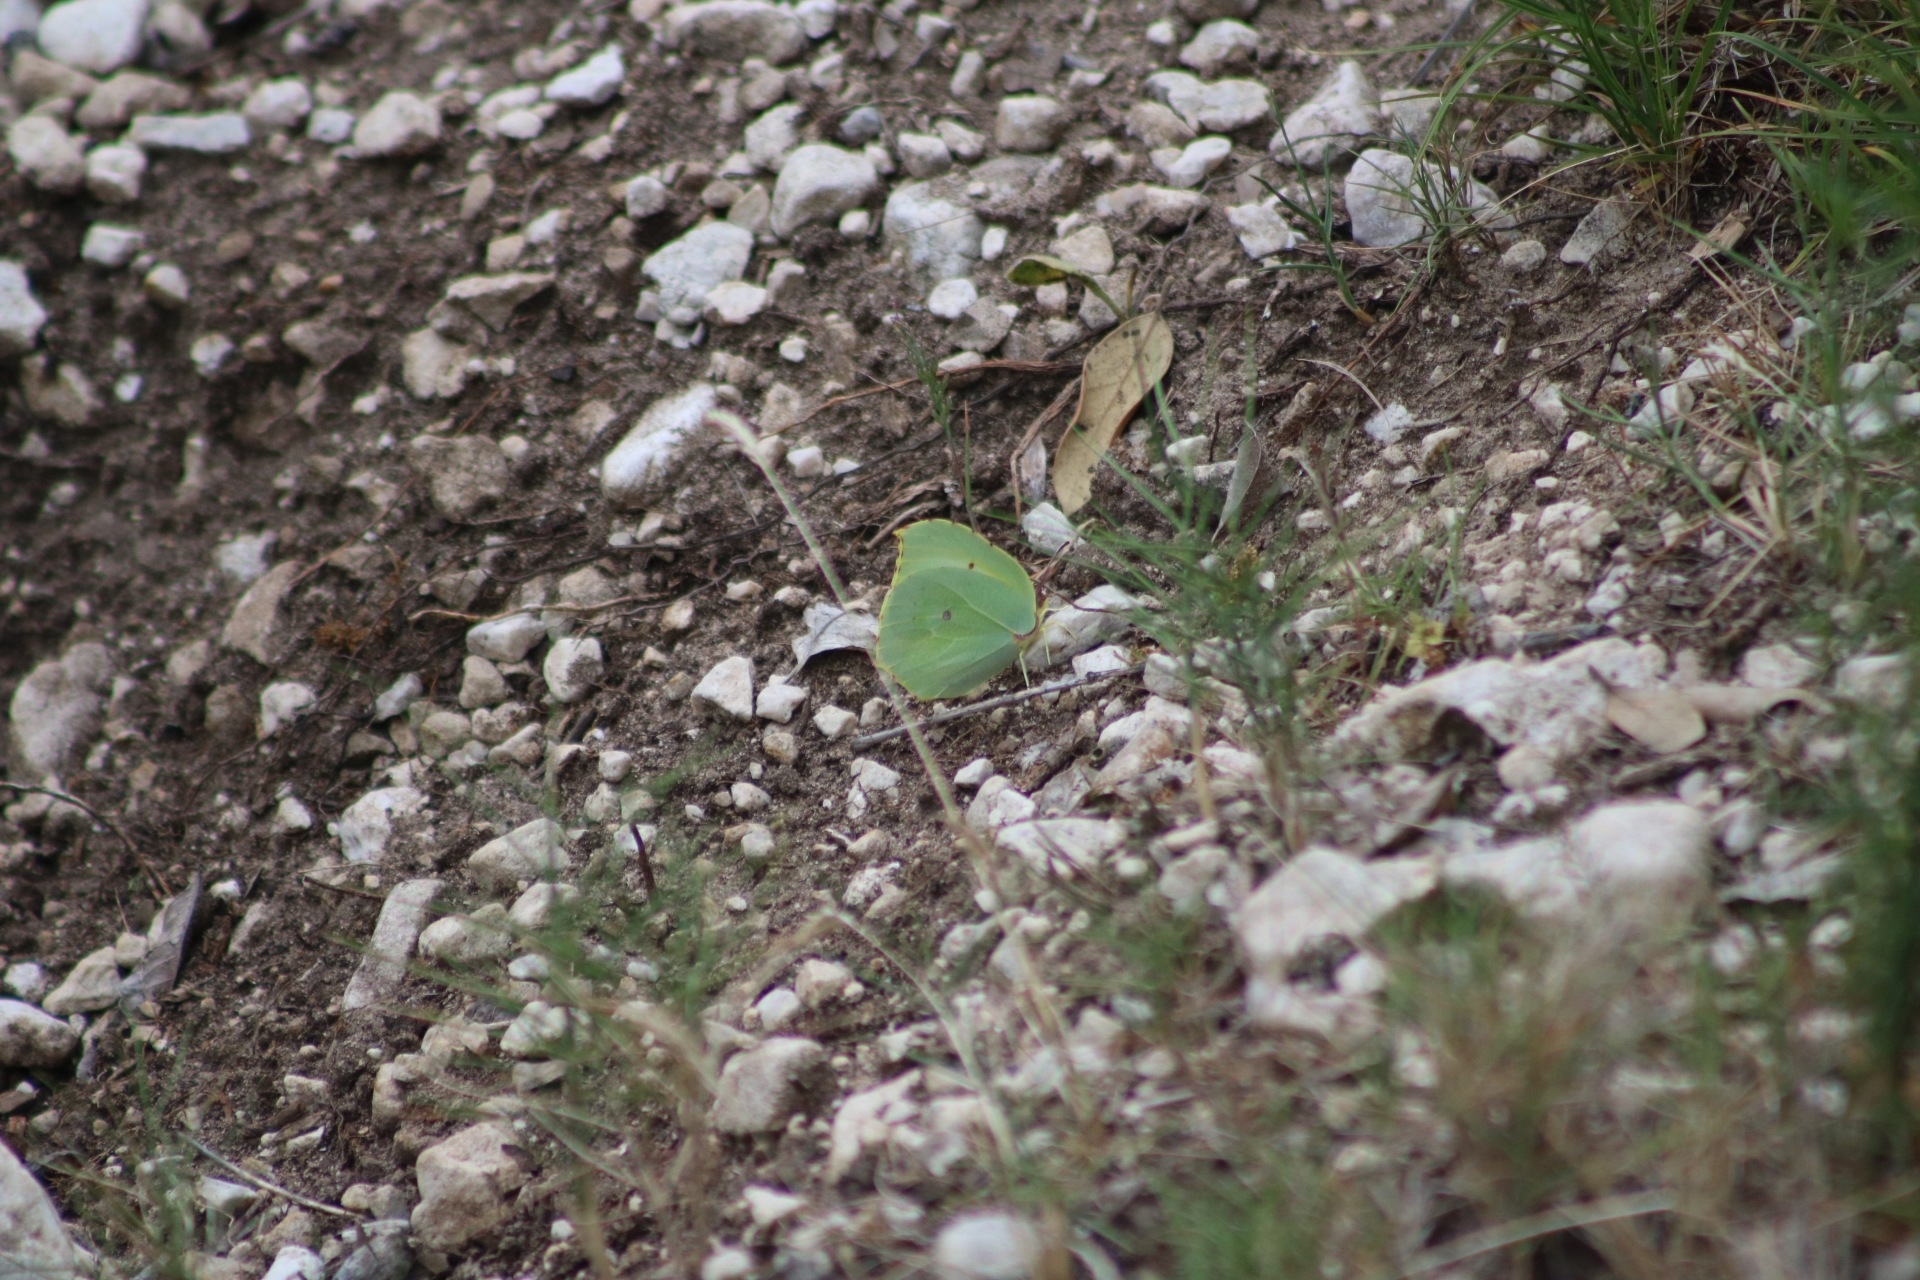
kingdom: Animalia
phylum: Arthropoda
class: Insecta
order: Lepidoptera
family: Pieridae
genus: Gonepteryx
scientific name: Gonepteryx cleopatra
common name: Cleopatra
